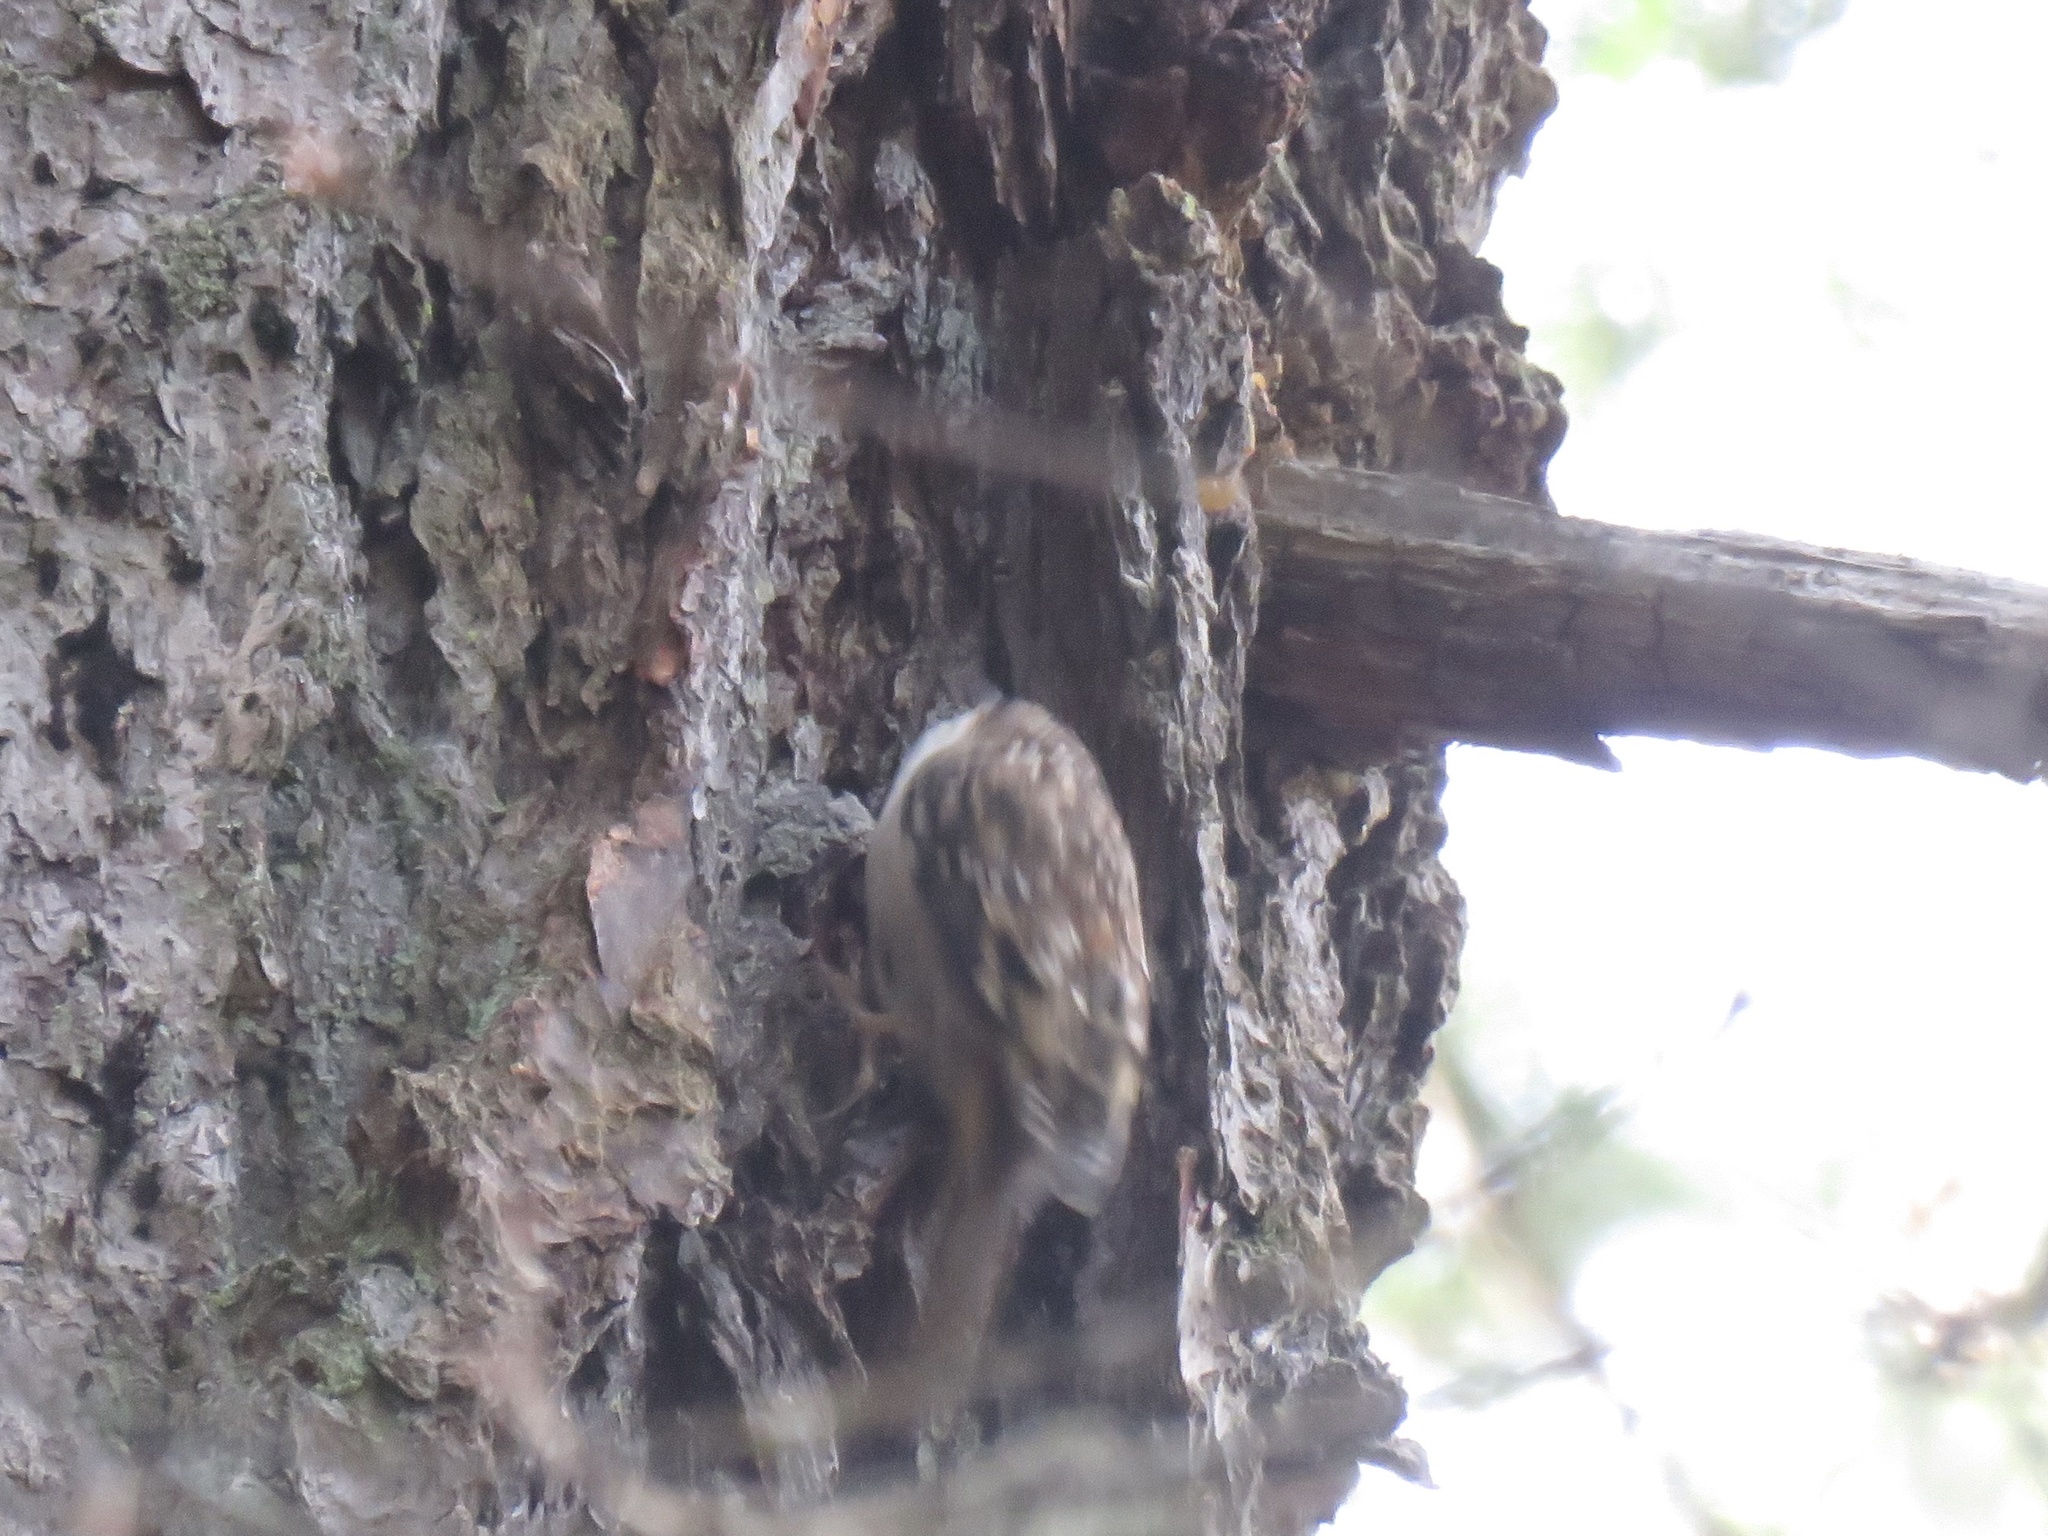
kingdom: Animalia
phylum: Chordata
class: Aves
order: Passeriformes
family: Certhiidae
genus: Certhia
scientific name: Certhia americana
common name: Brown creeper
